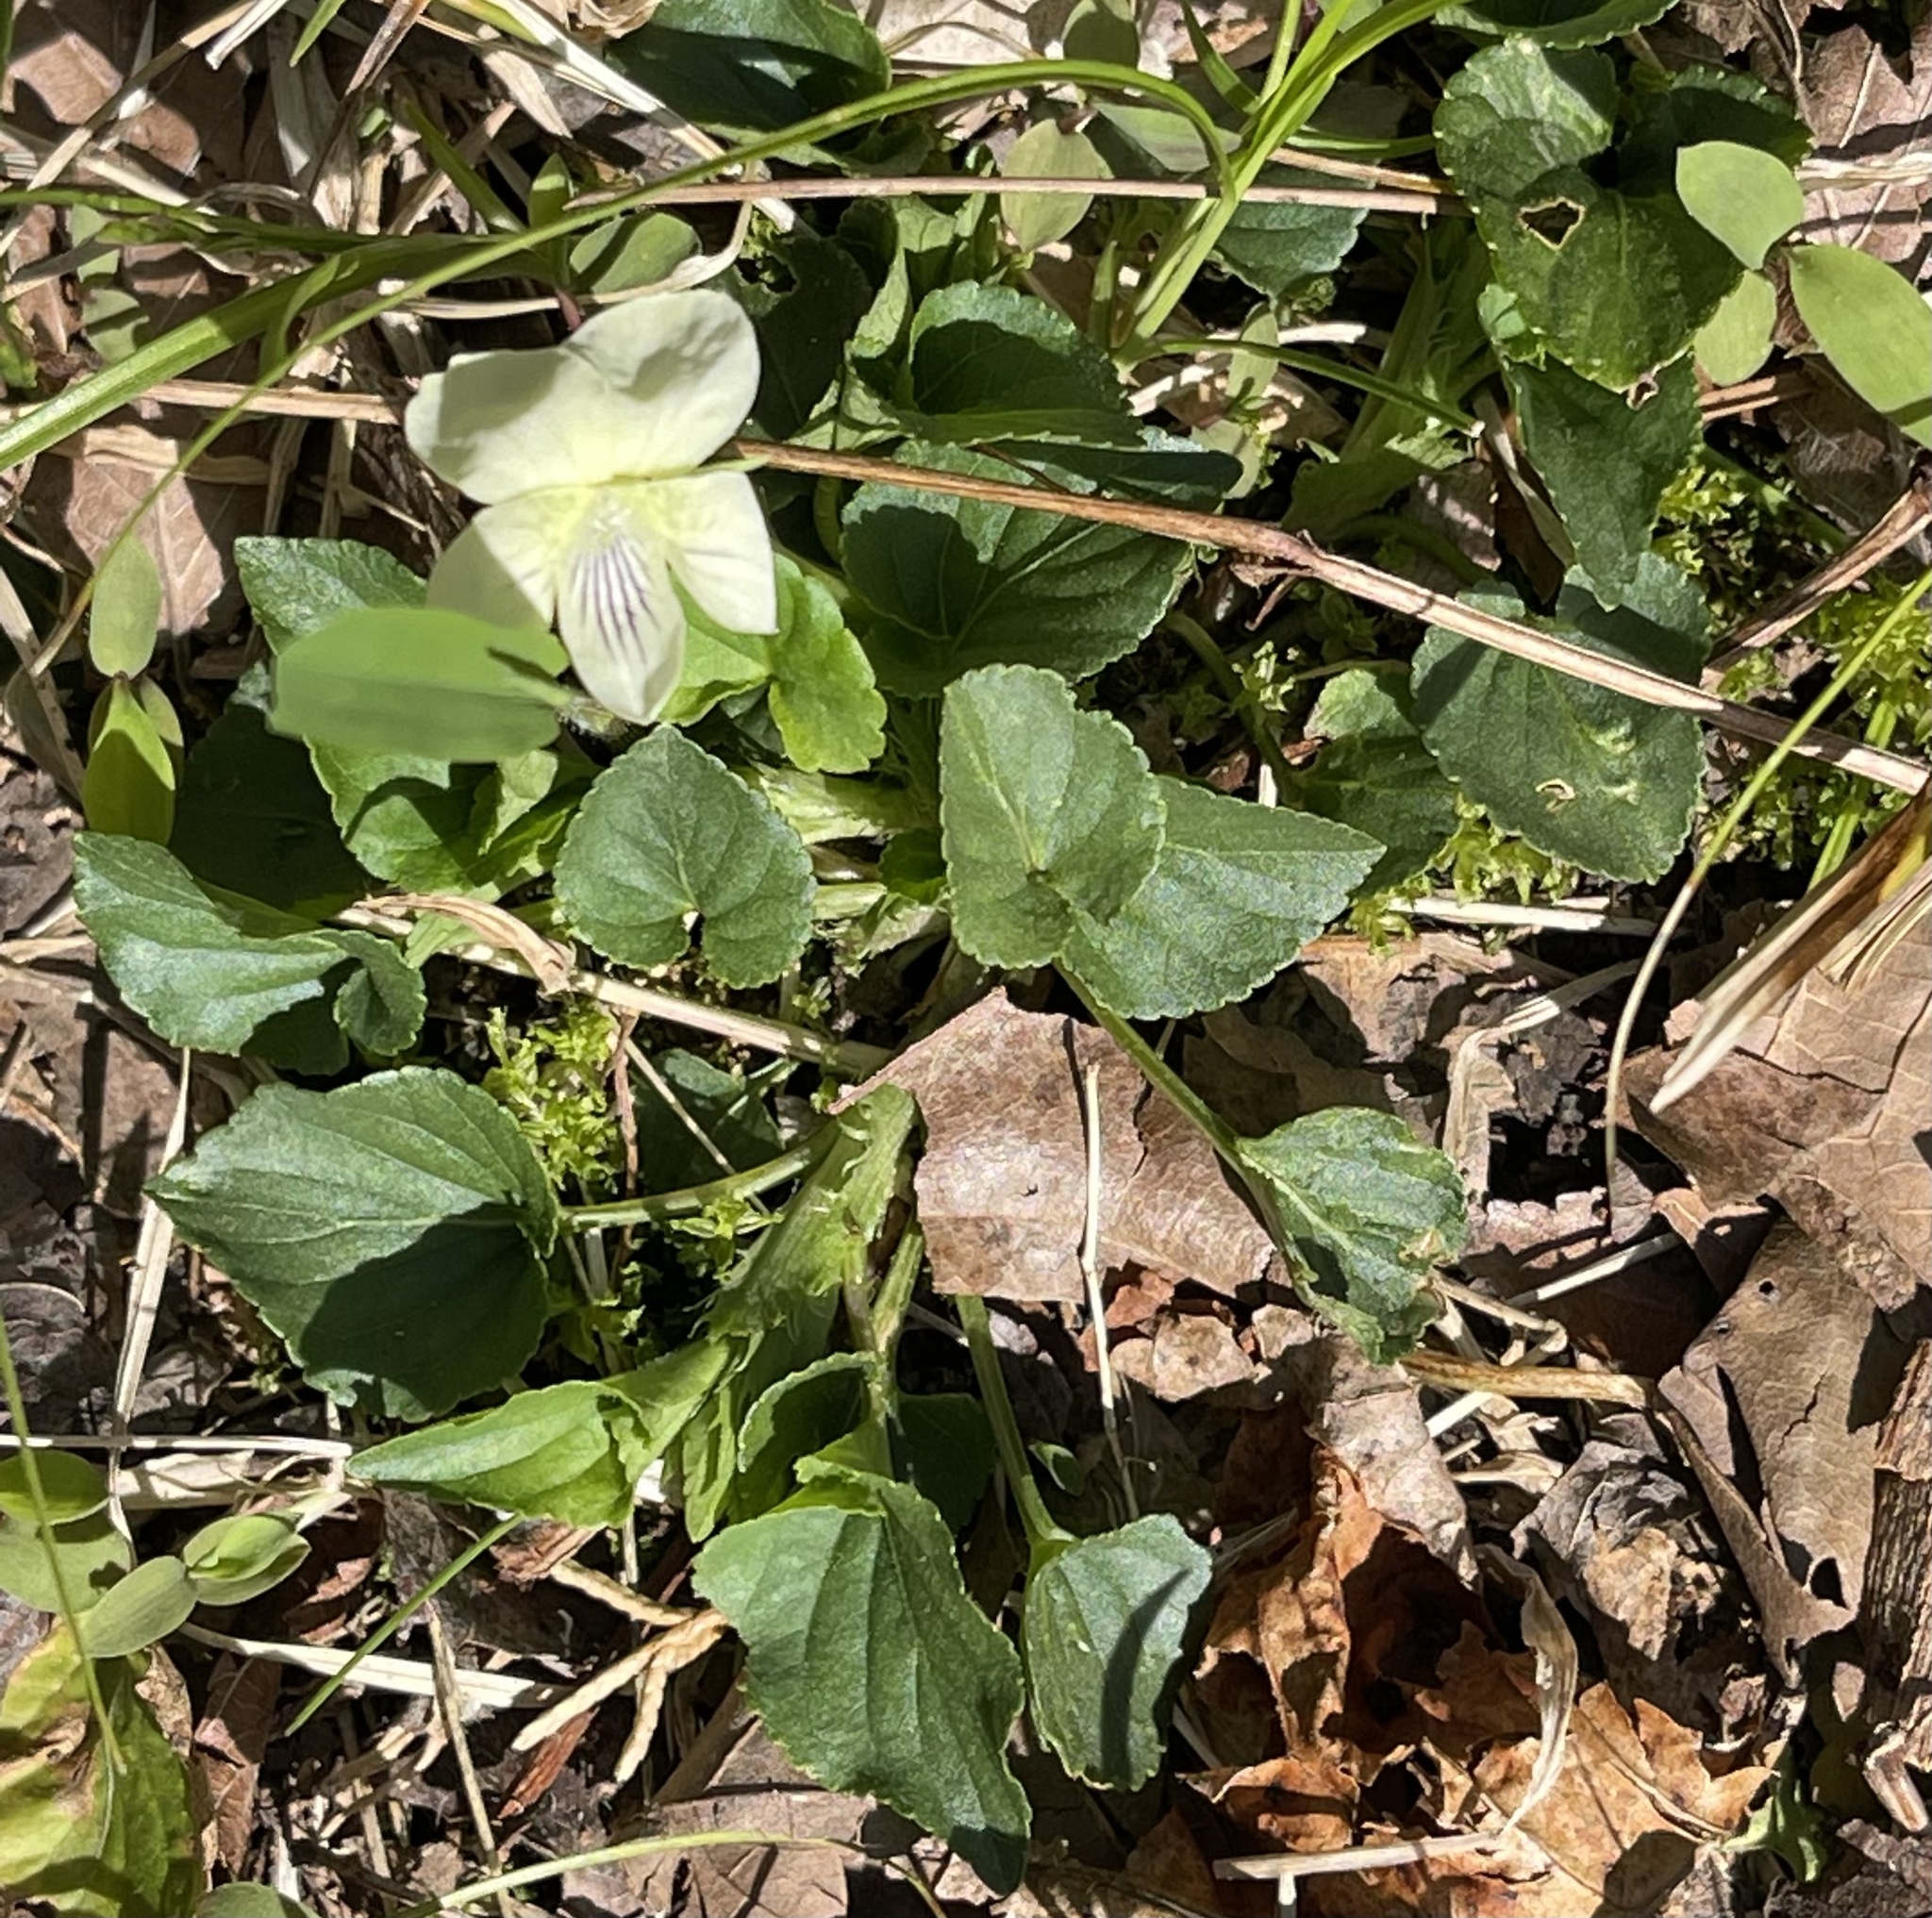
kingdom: Plantae
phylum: Tracheophyta
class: Magnoliopsida
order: Malpighiales
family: Violaceae
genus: Viola
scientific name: Viola striata
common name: Cream violet
